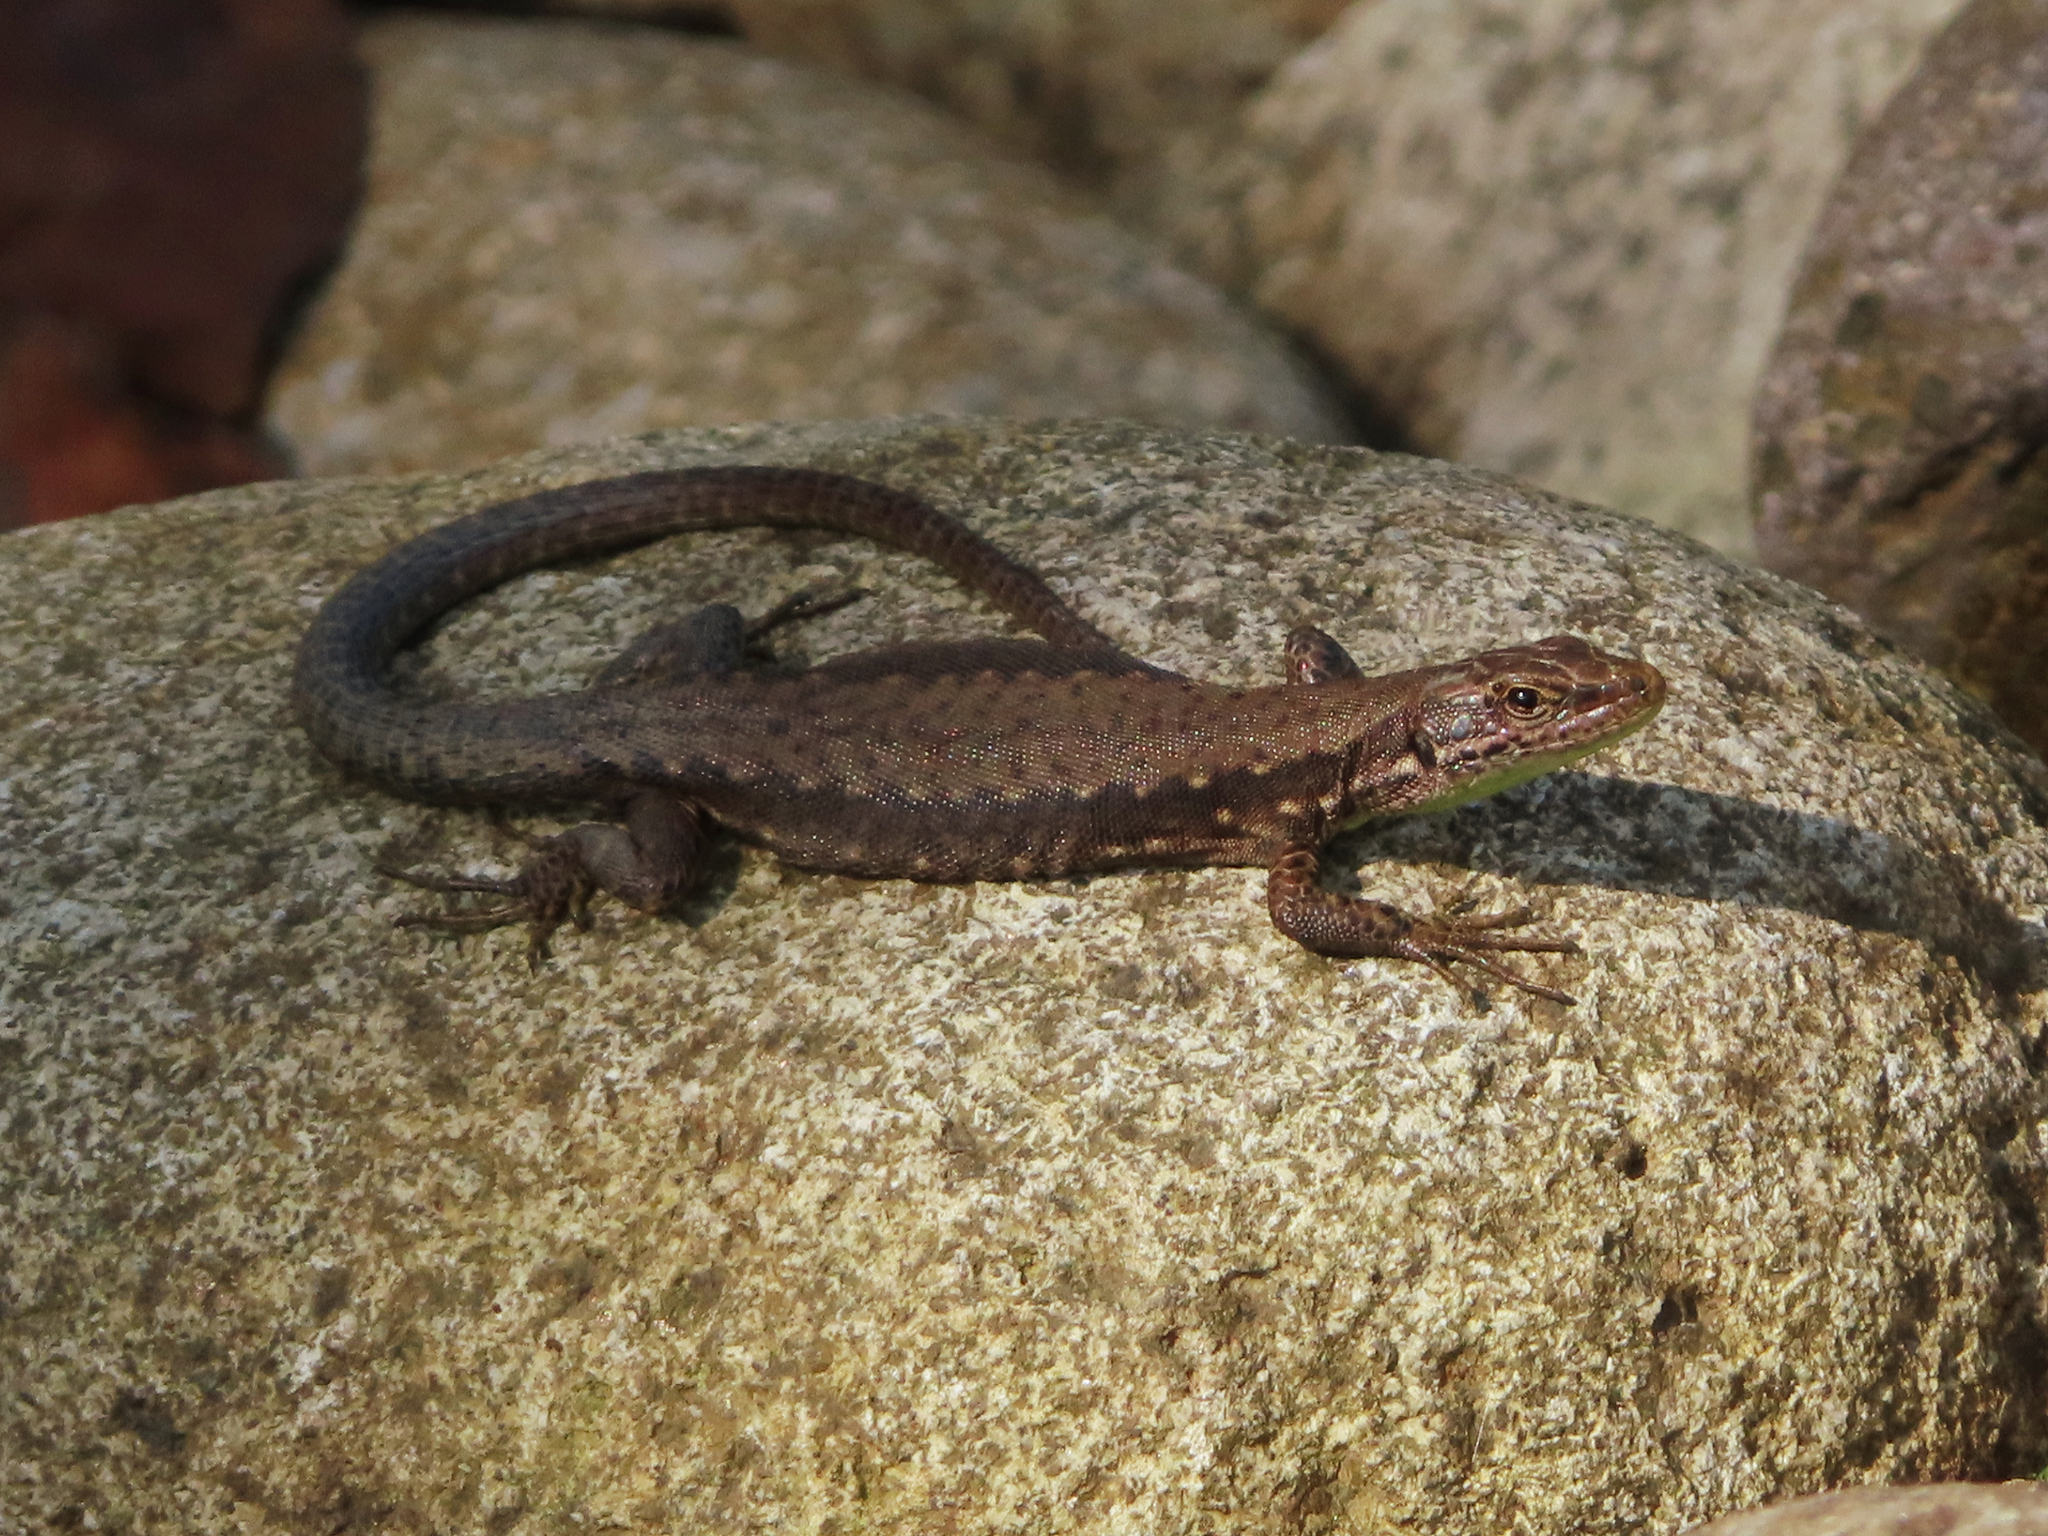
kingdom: Animalia
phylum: Chordata
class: Squamata
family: Lacertidae
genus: Darevskia
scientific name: Darevskia chlorogaster
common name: Green-bellied lizard
